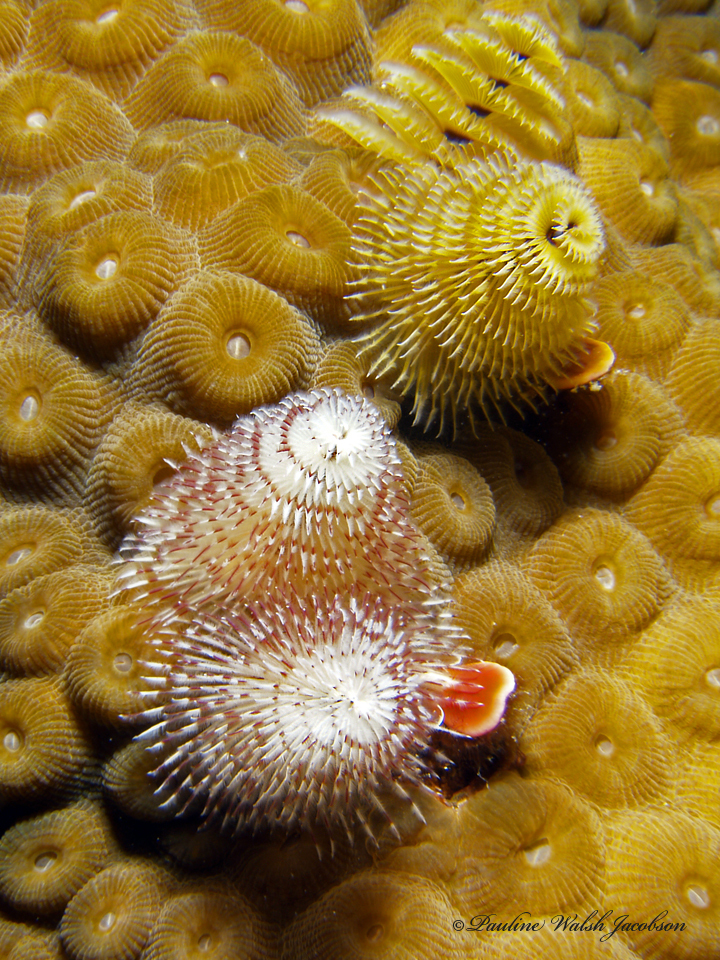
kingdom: Animalia
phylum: Annelida
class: Polychaeta
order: Sabellida
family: Serpulidae
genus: Spirobranchus
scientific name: Spirobranchus giganteus
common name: Christmas tree worm
